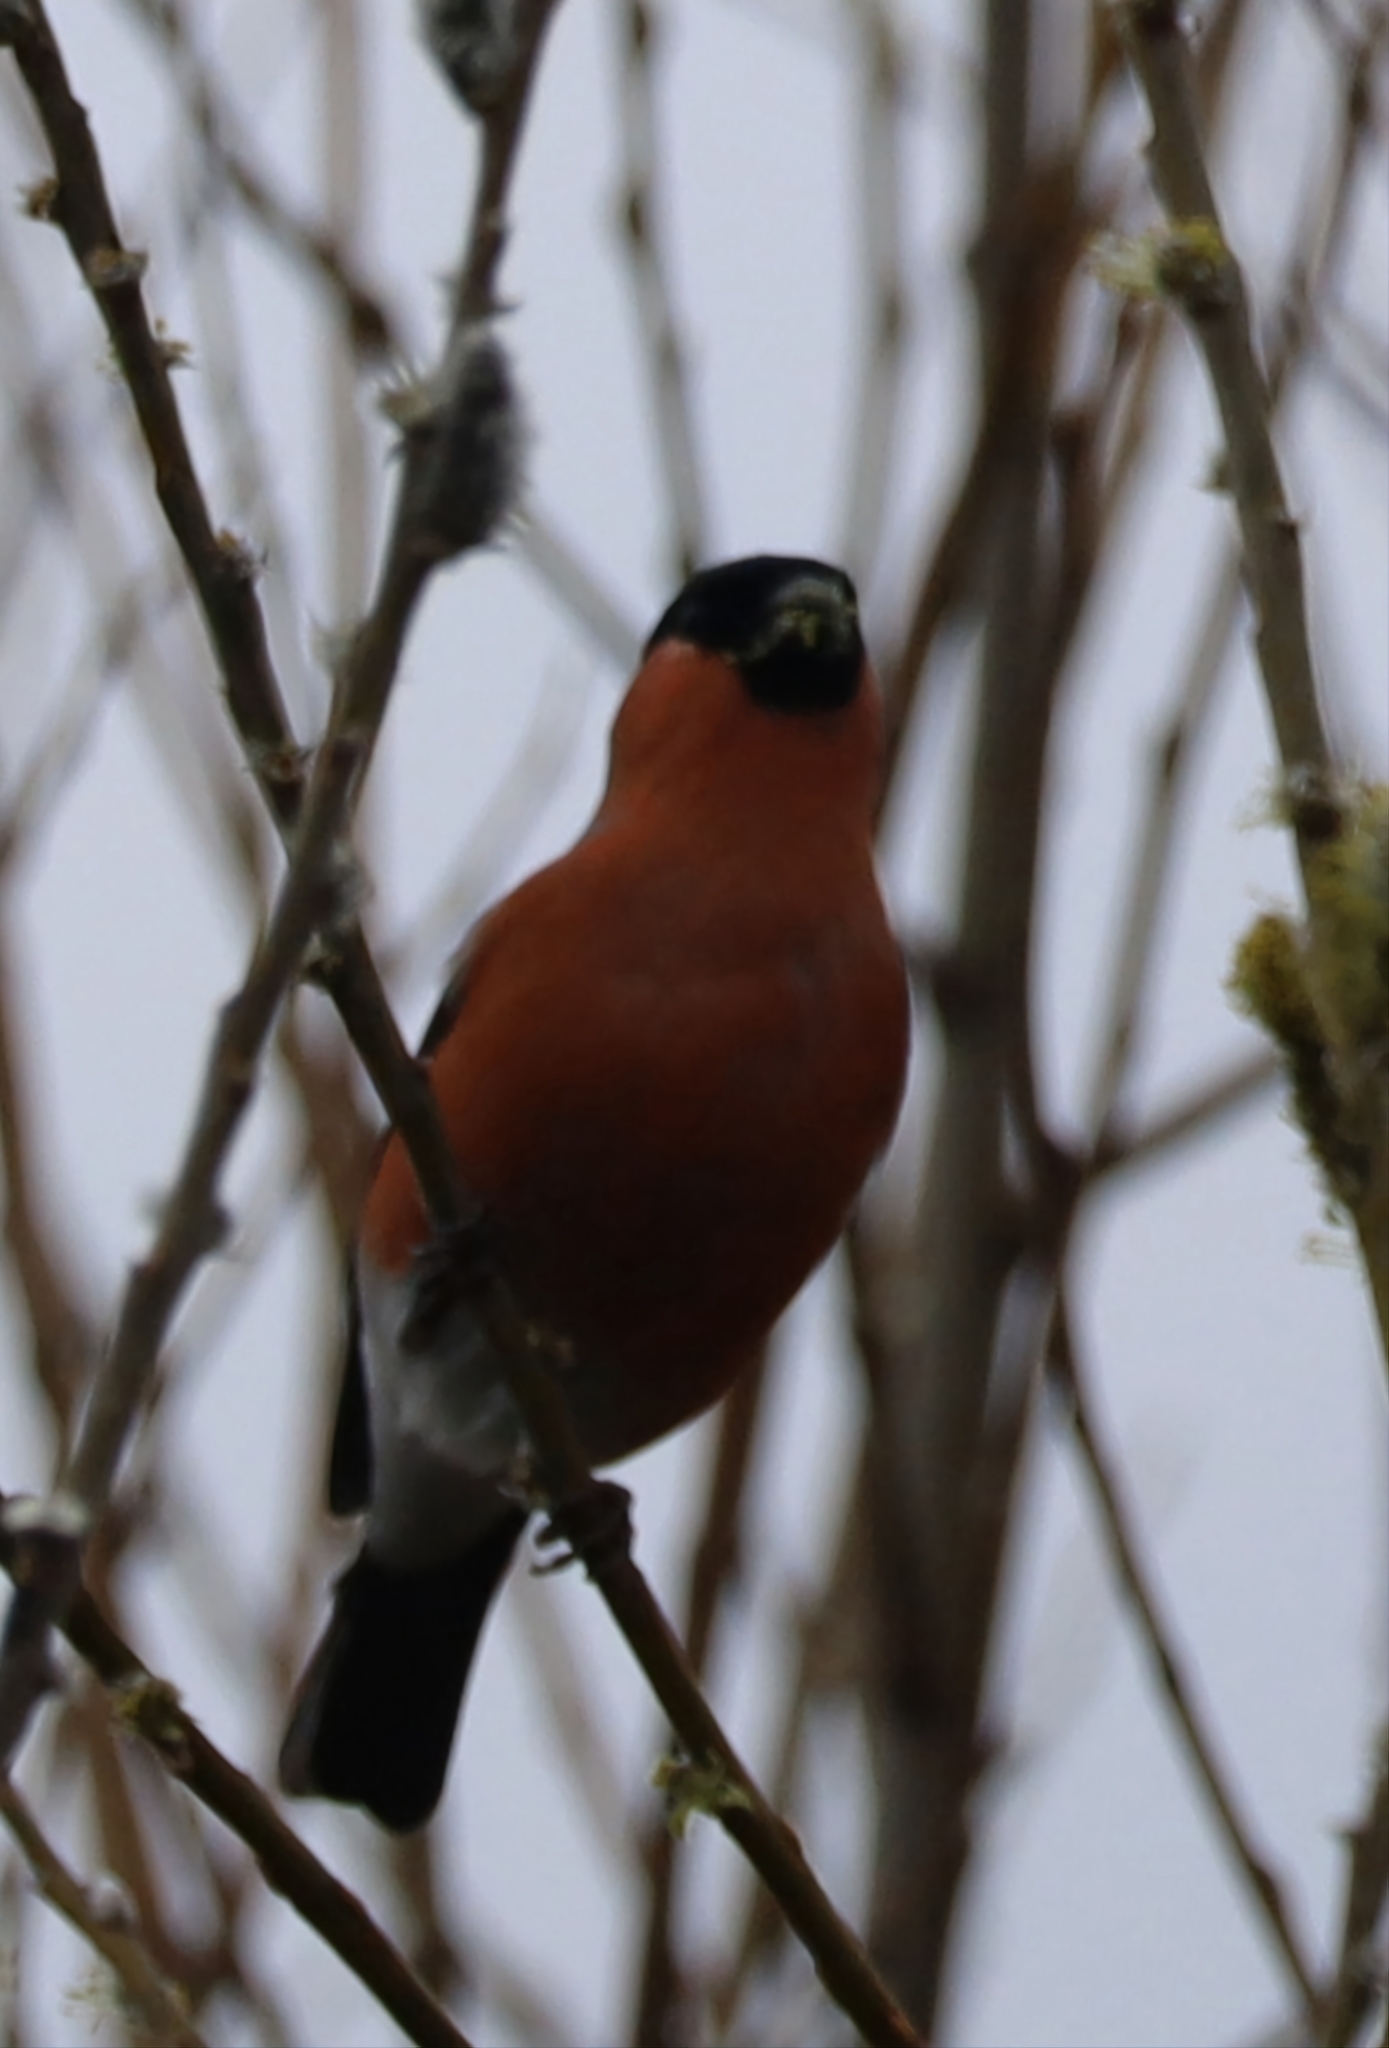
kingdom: Animalia
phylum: Chordata
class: Aves
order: Passeriformes
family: Fringillidae
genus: Pyrrhula
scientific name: Pyrrhula pyrrhula
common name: Eurasian bullfinch
